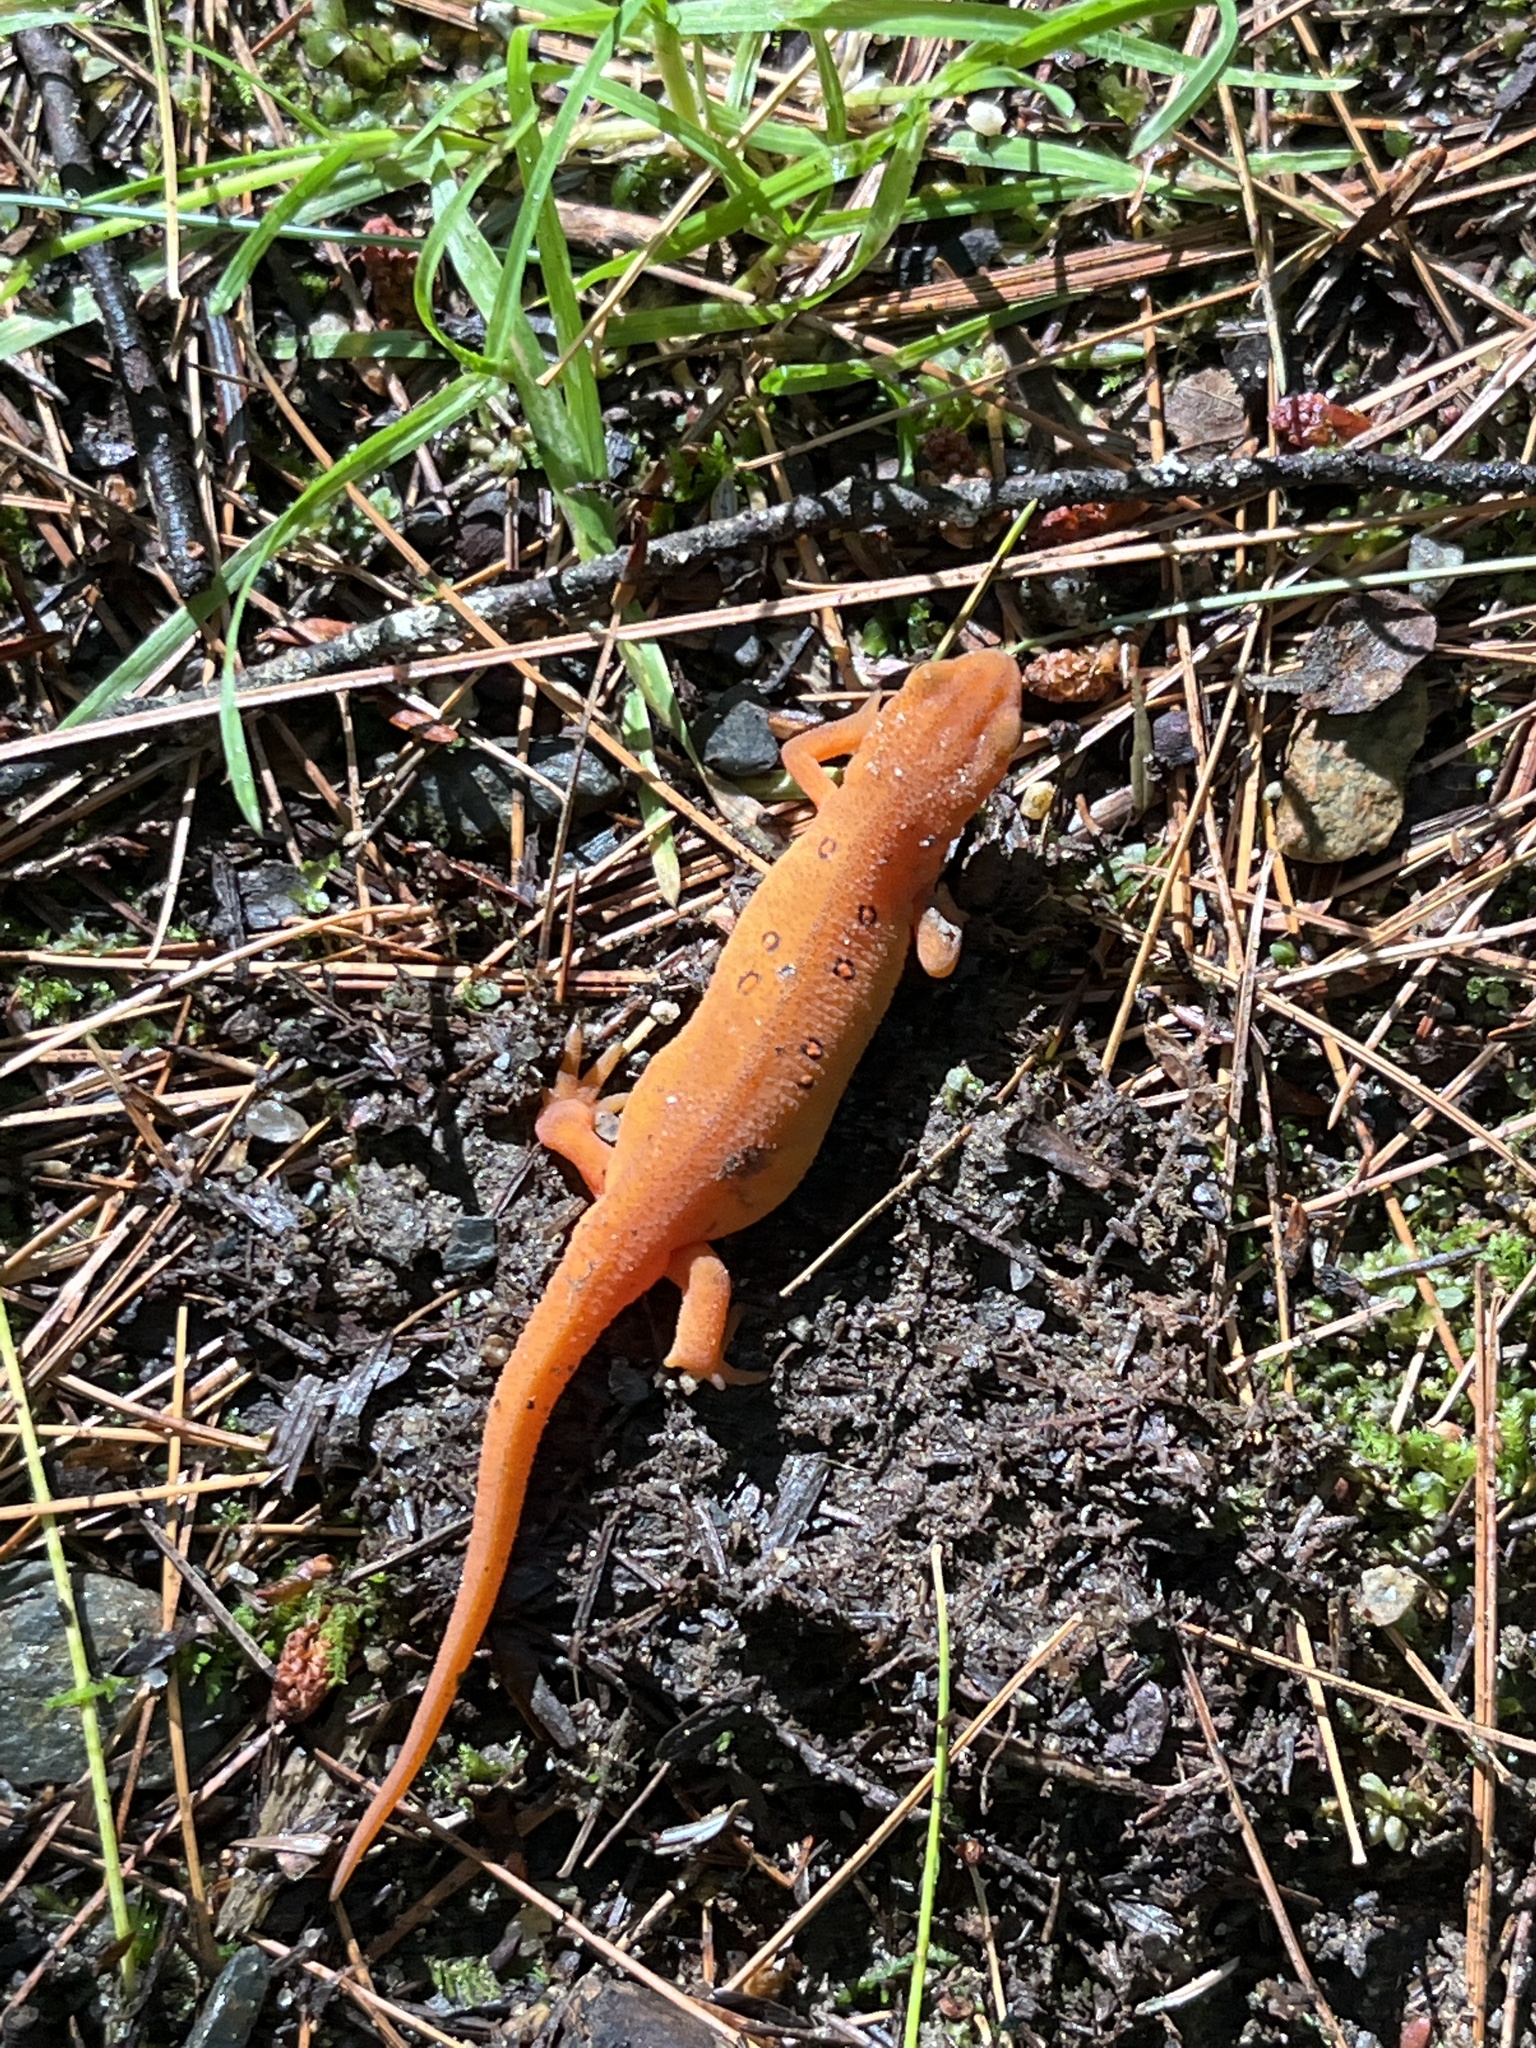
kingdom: Animalia
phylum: Chordata
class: Amphibia
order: Caudata
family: Salamandridae
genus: Notophthalmus
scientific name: Notophthalmus viridescens
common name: Eastern newt
